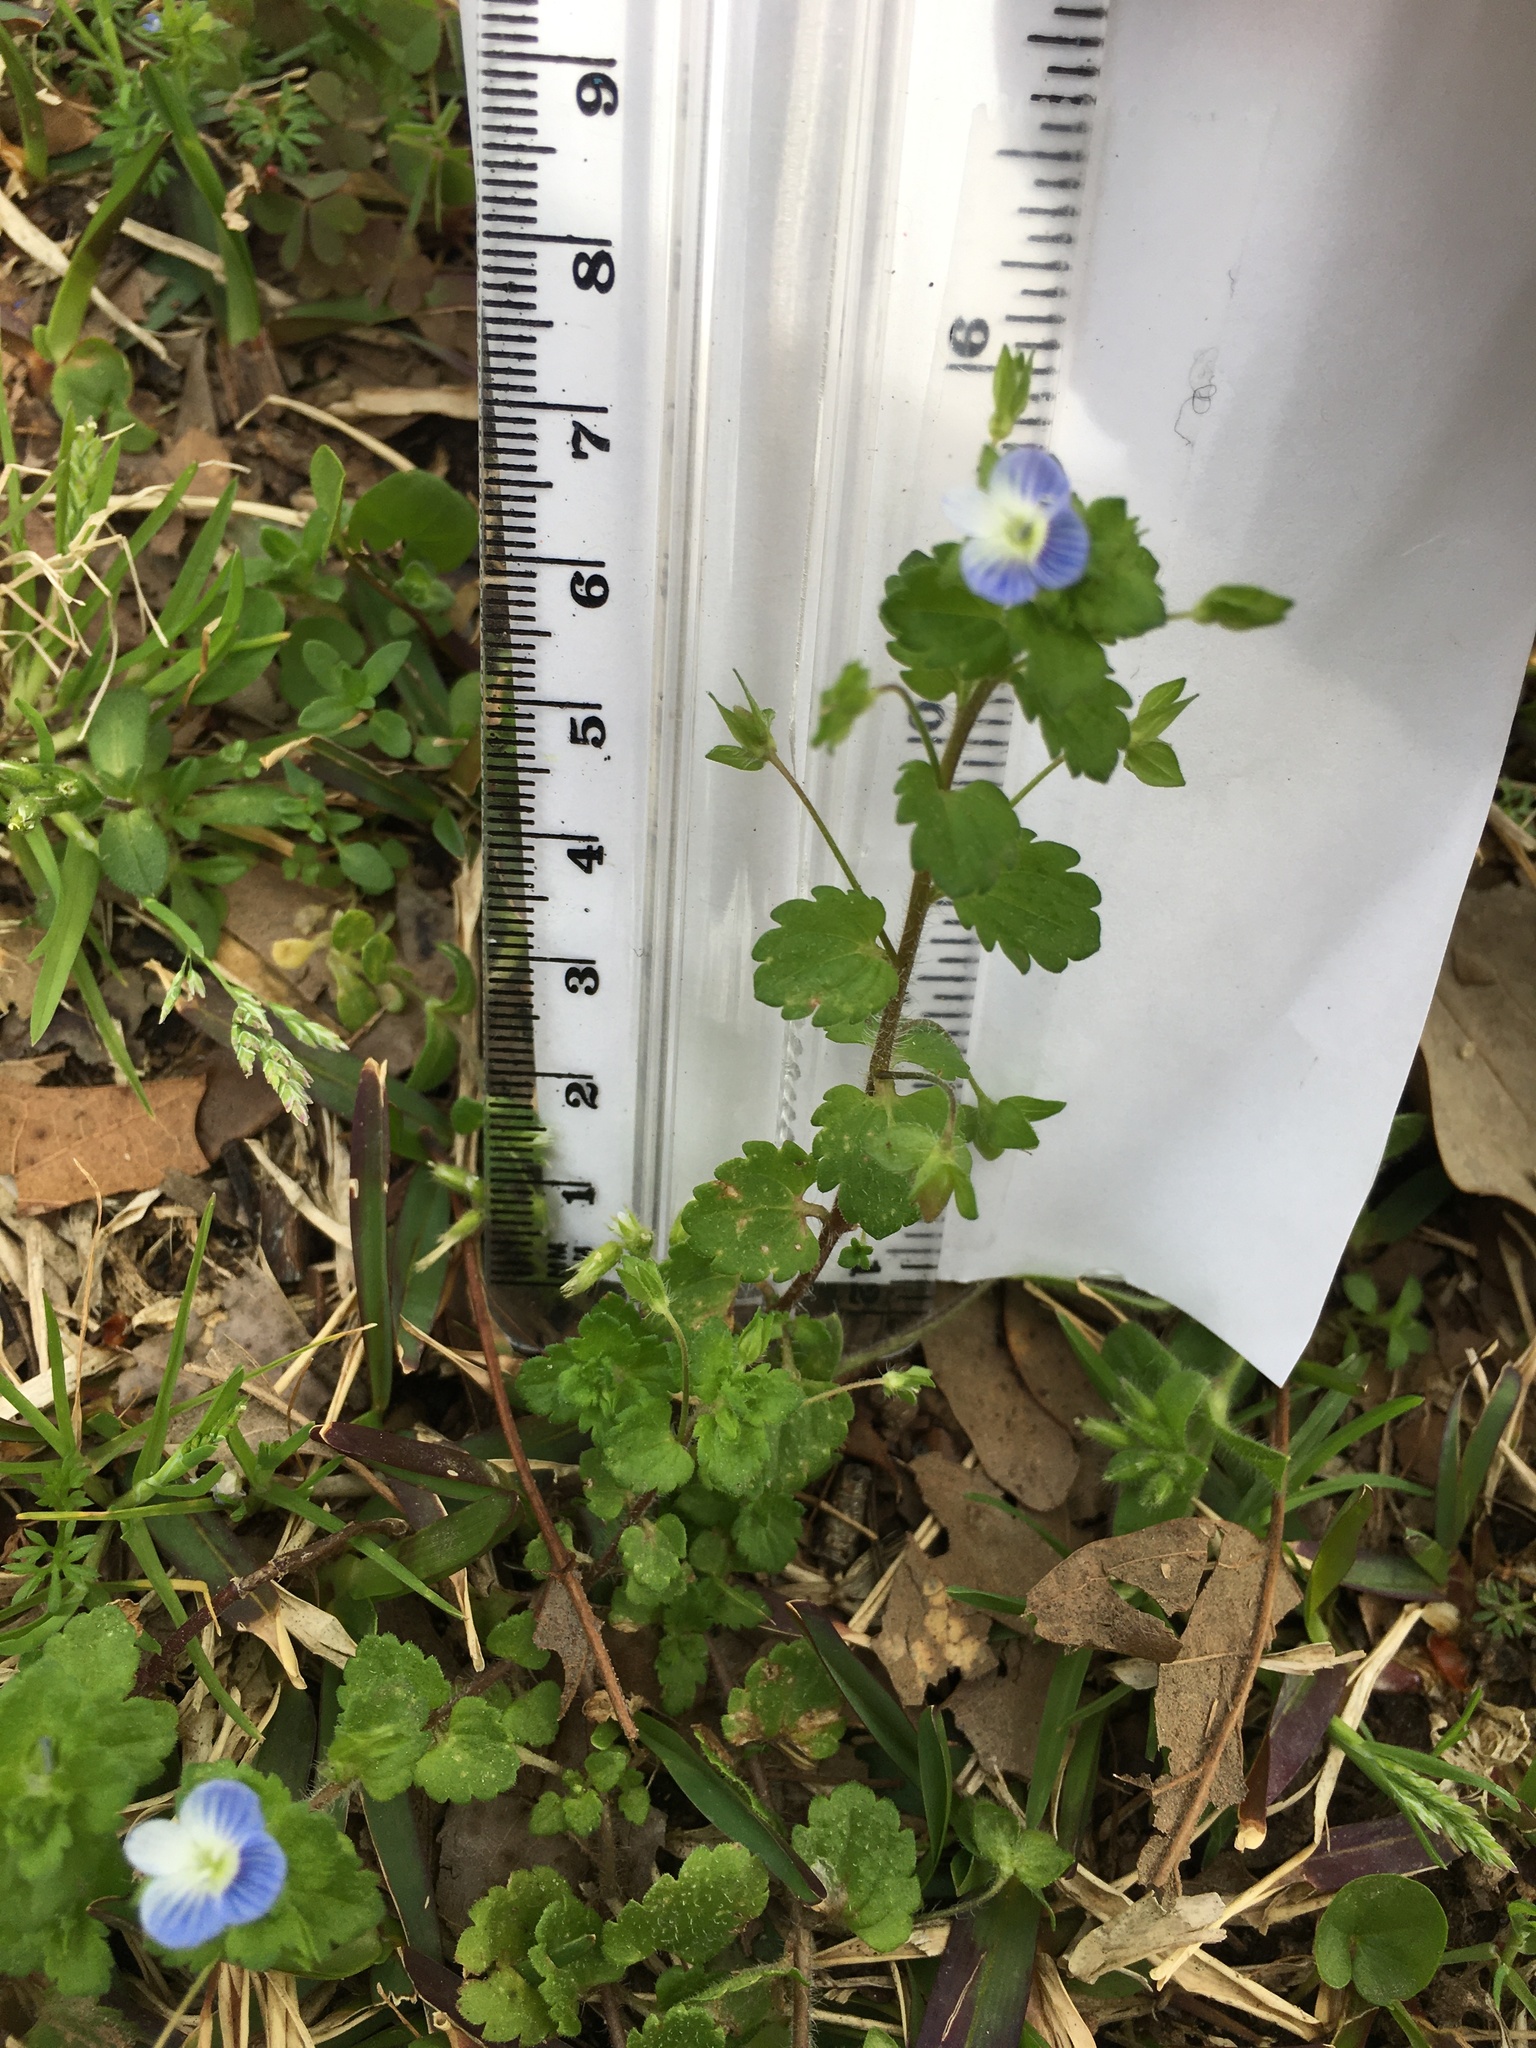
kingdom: Plantae
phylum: Tracheophyta
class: Magnoliopsida
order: Lamiales
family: Plantaginaceae
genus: Veronica
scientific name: Veronica persica
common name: Common field-speedwell
